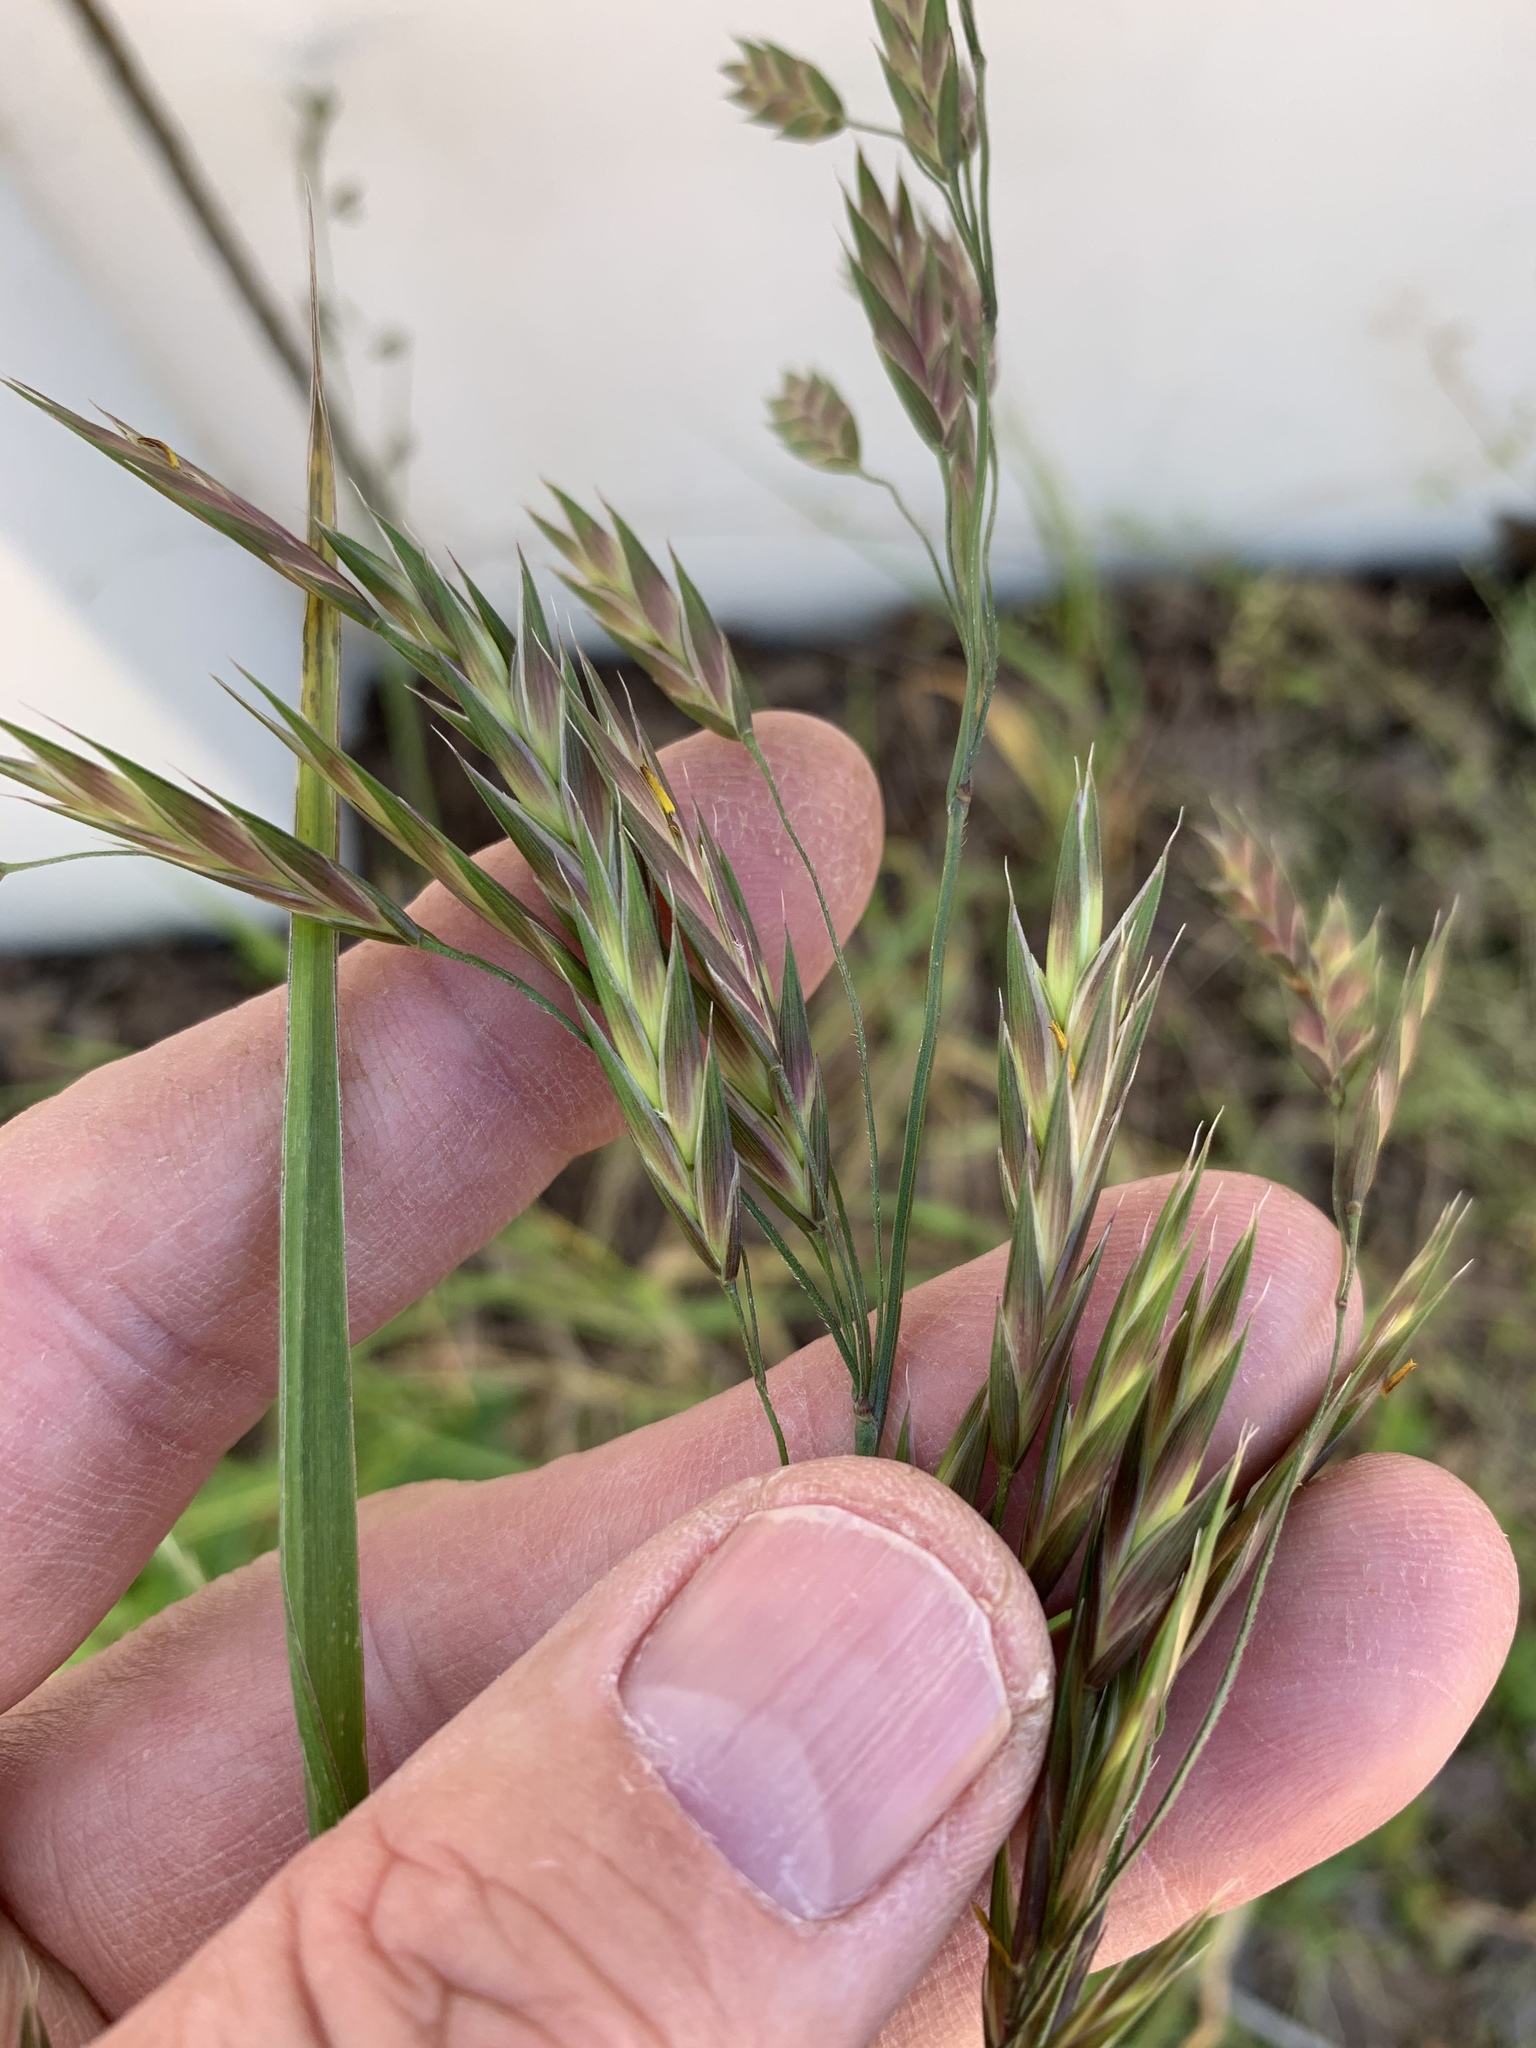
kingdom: Plantae
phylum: Tracheophyta
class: Liliopsida
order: Poales
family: Poaceae
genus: Bromus
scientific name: Bromus catharticus
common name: Rescuegrass
